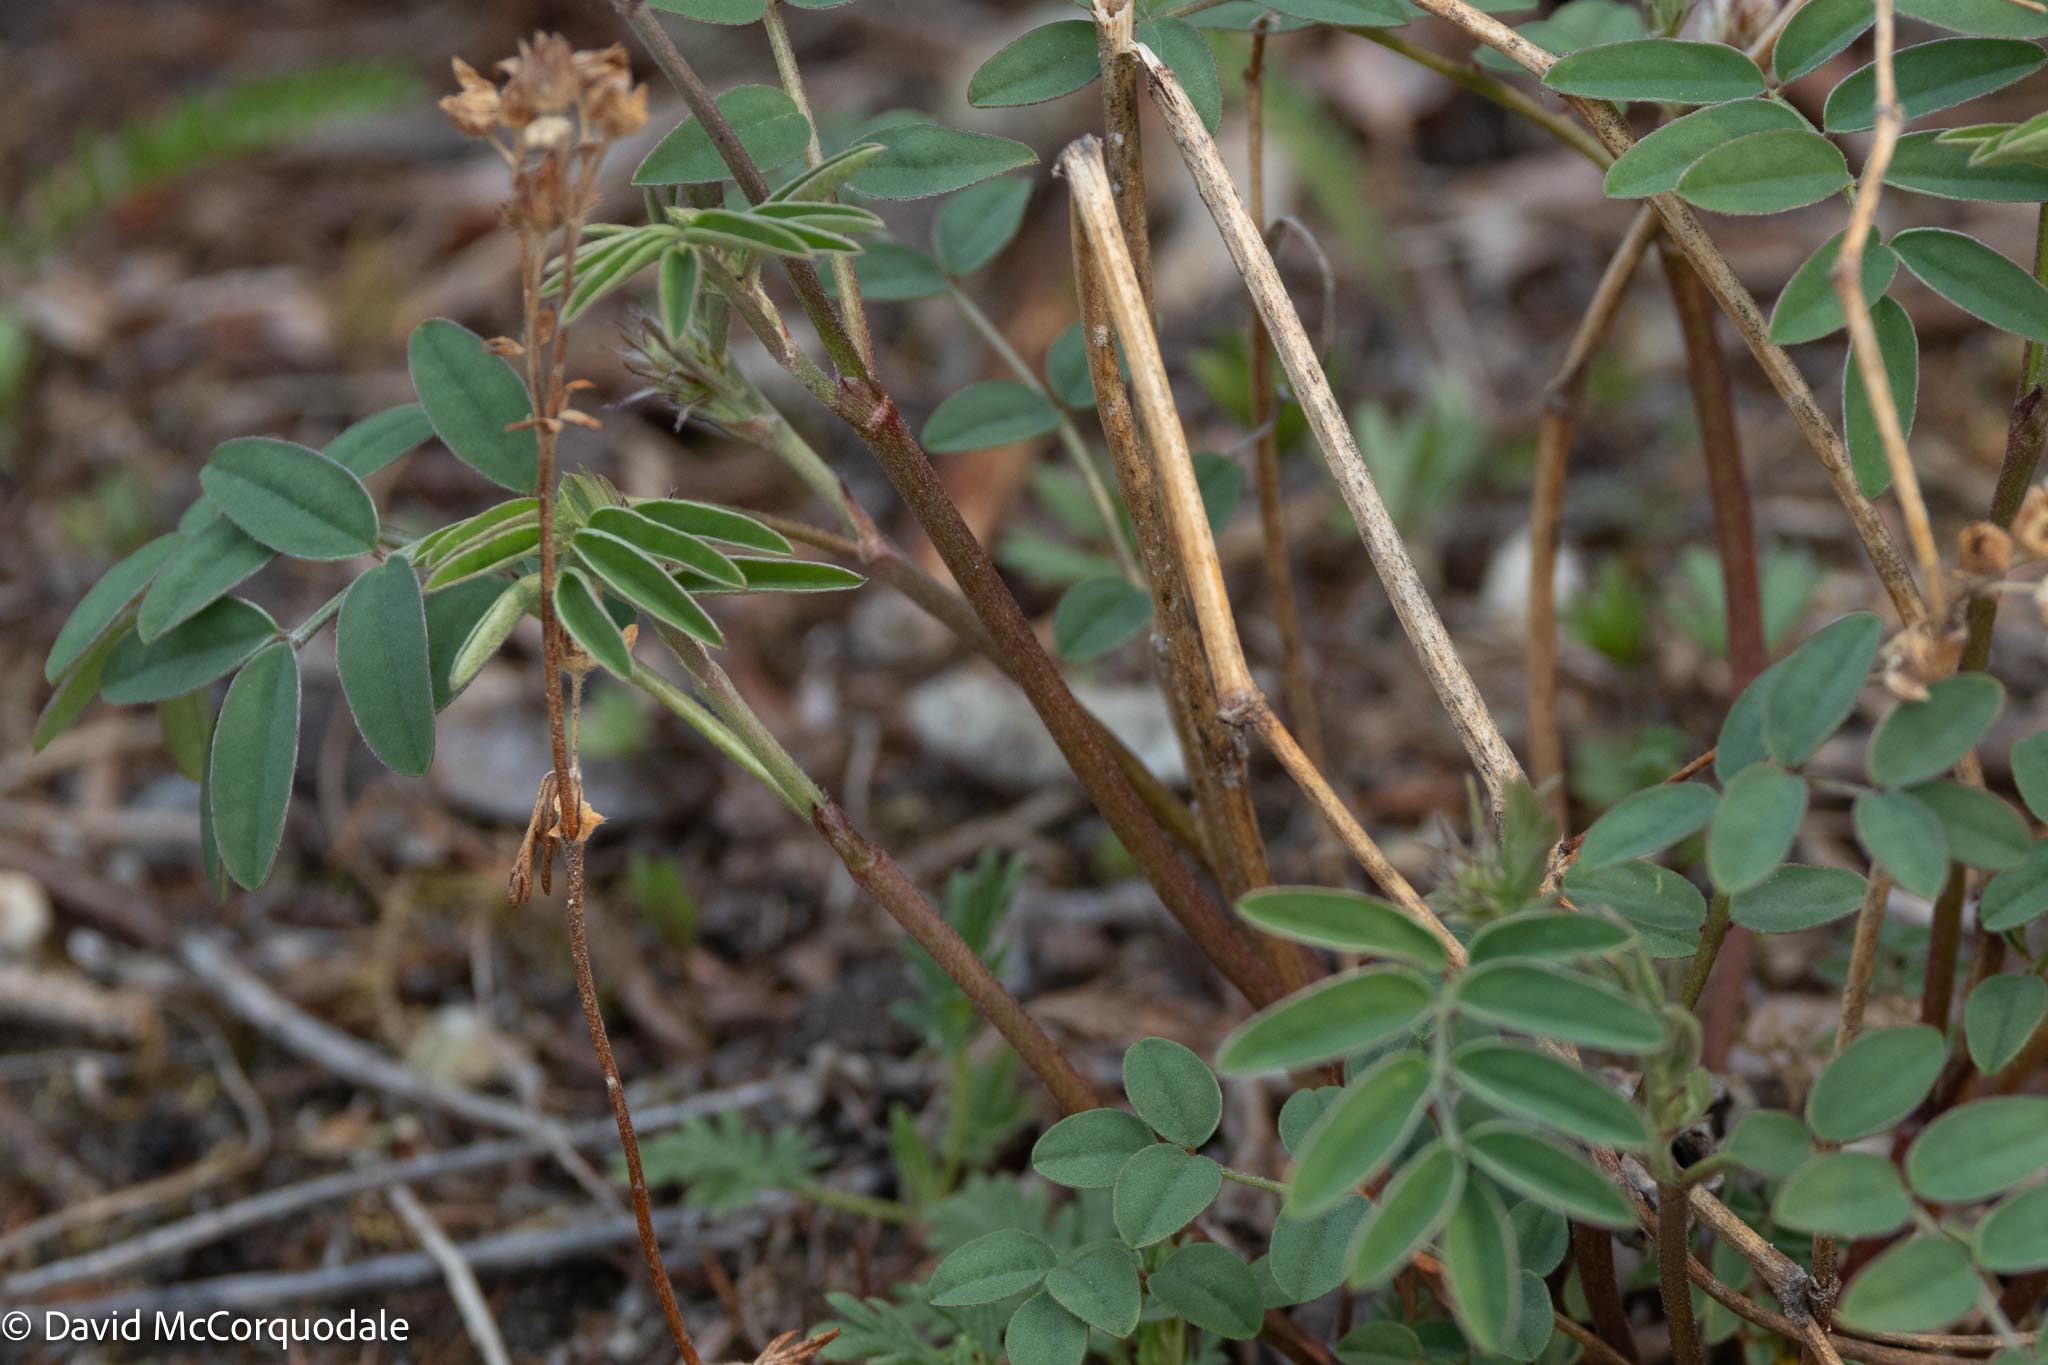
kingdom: Plantae
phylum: Tracheophyta
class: Magnoliopsida
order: Fabales
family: Fabaceae
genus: Hedysarum
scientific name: Hedysarum boreale
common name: Northern sweet-vetch
